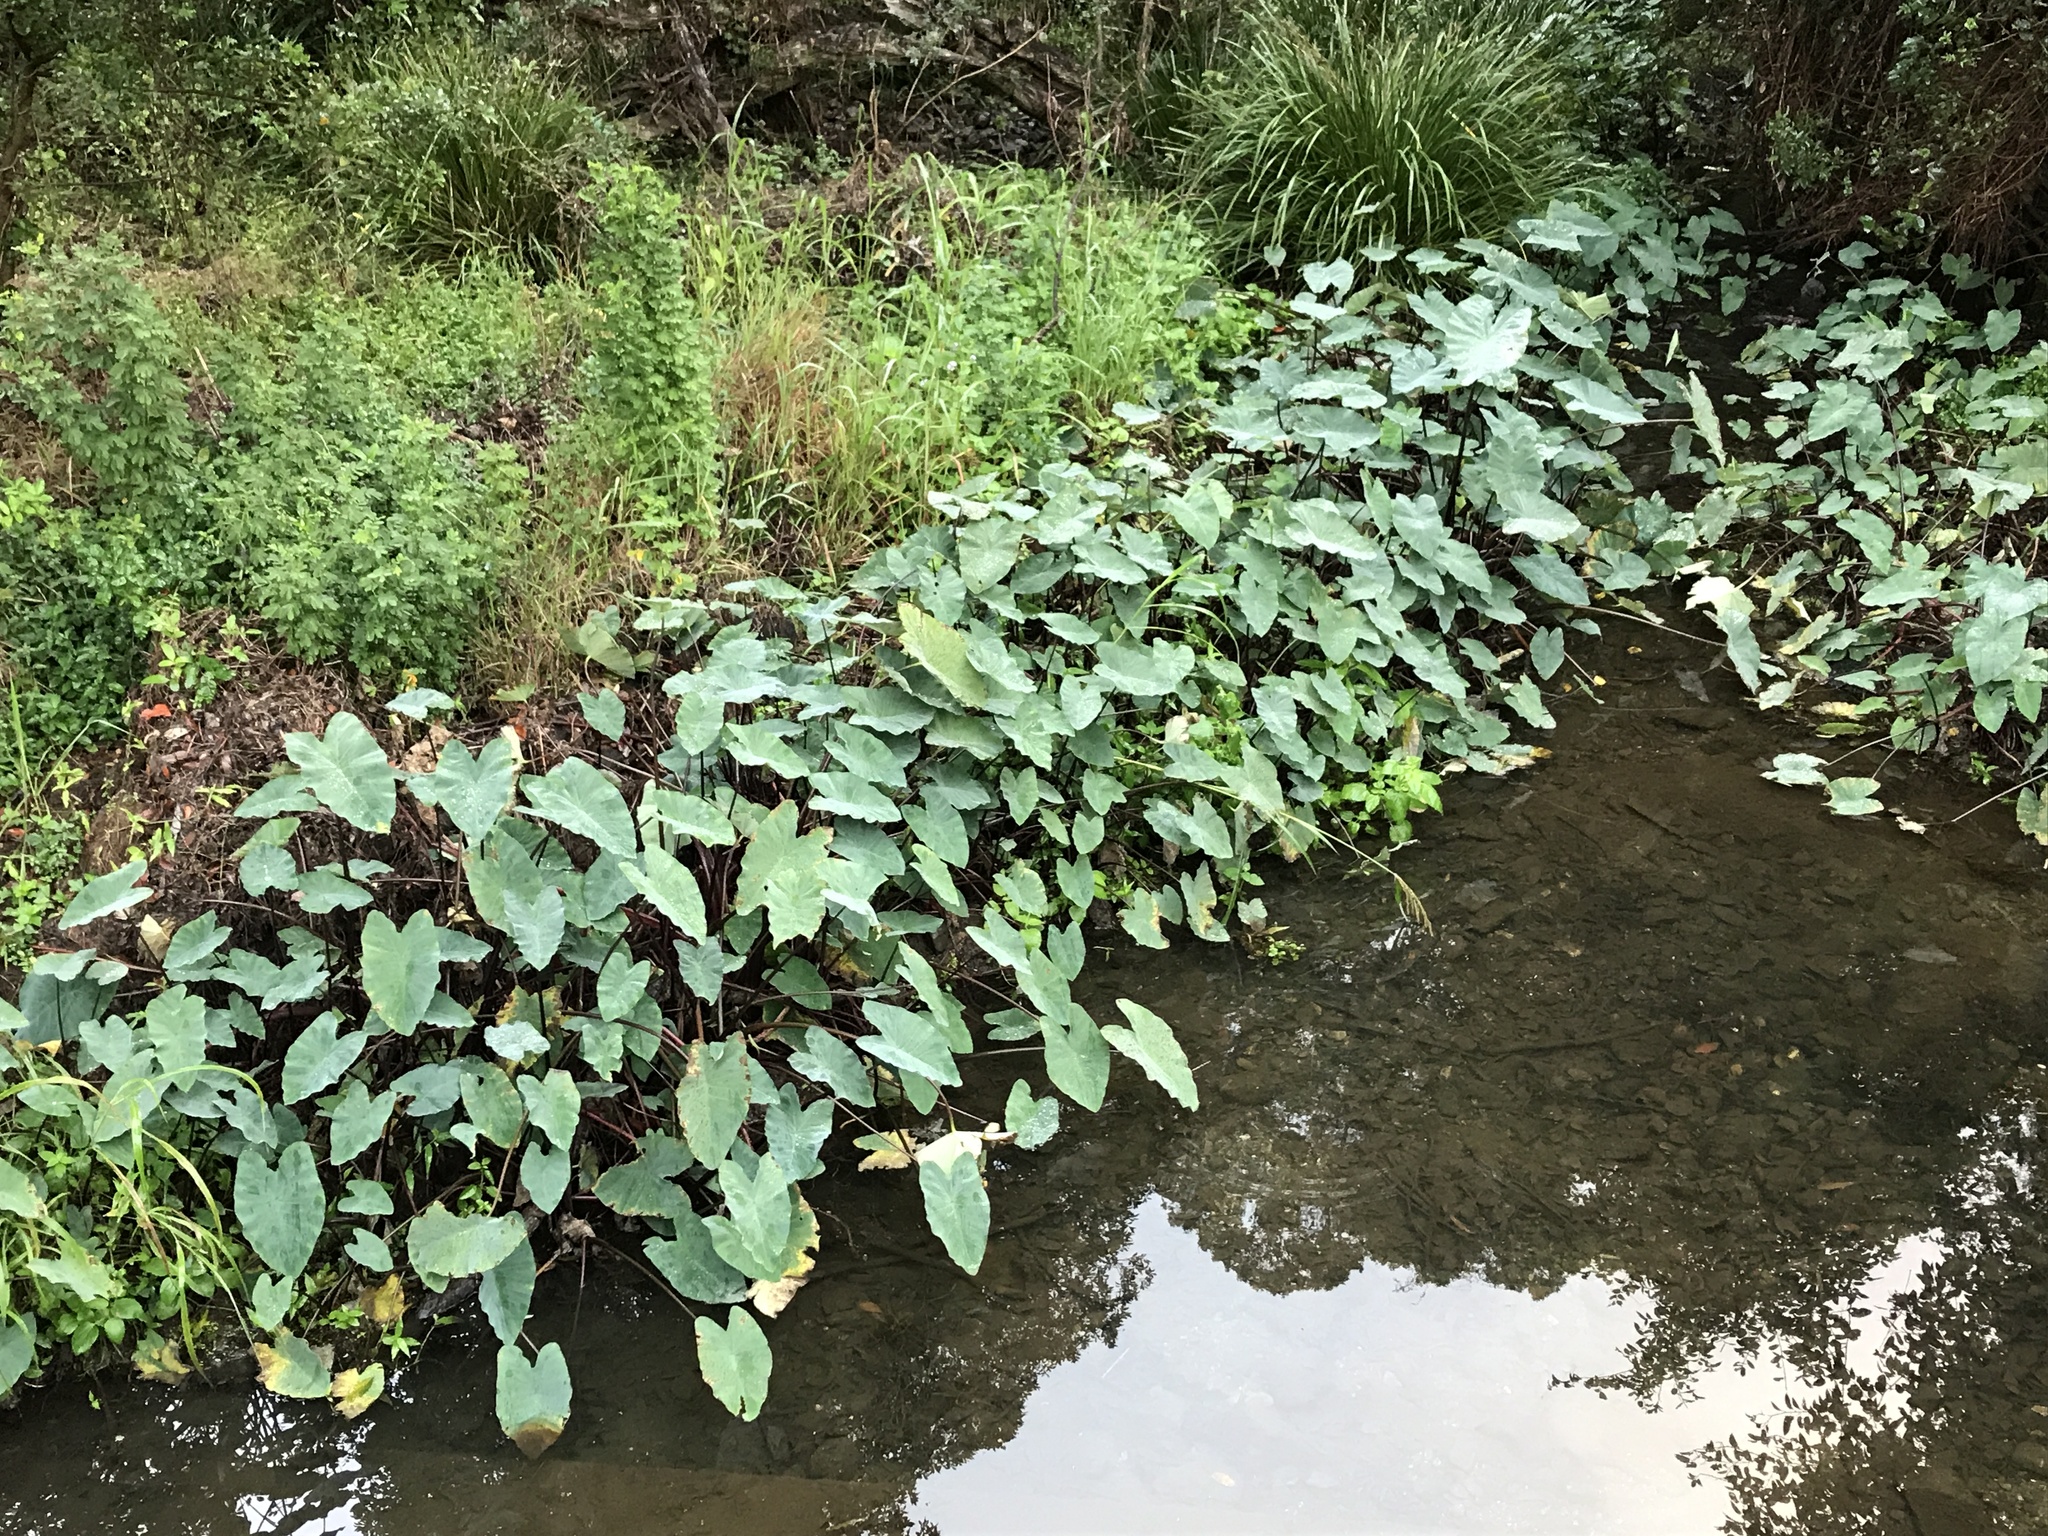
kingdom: Plantae
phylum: Tracheophyta
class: Liliopsida
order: Alismatales
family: Araceae
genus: Colocasia
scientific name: Colocasia esculenta
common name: Taro
